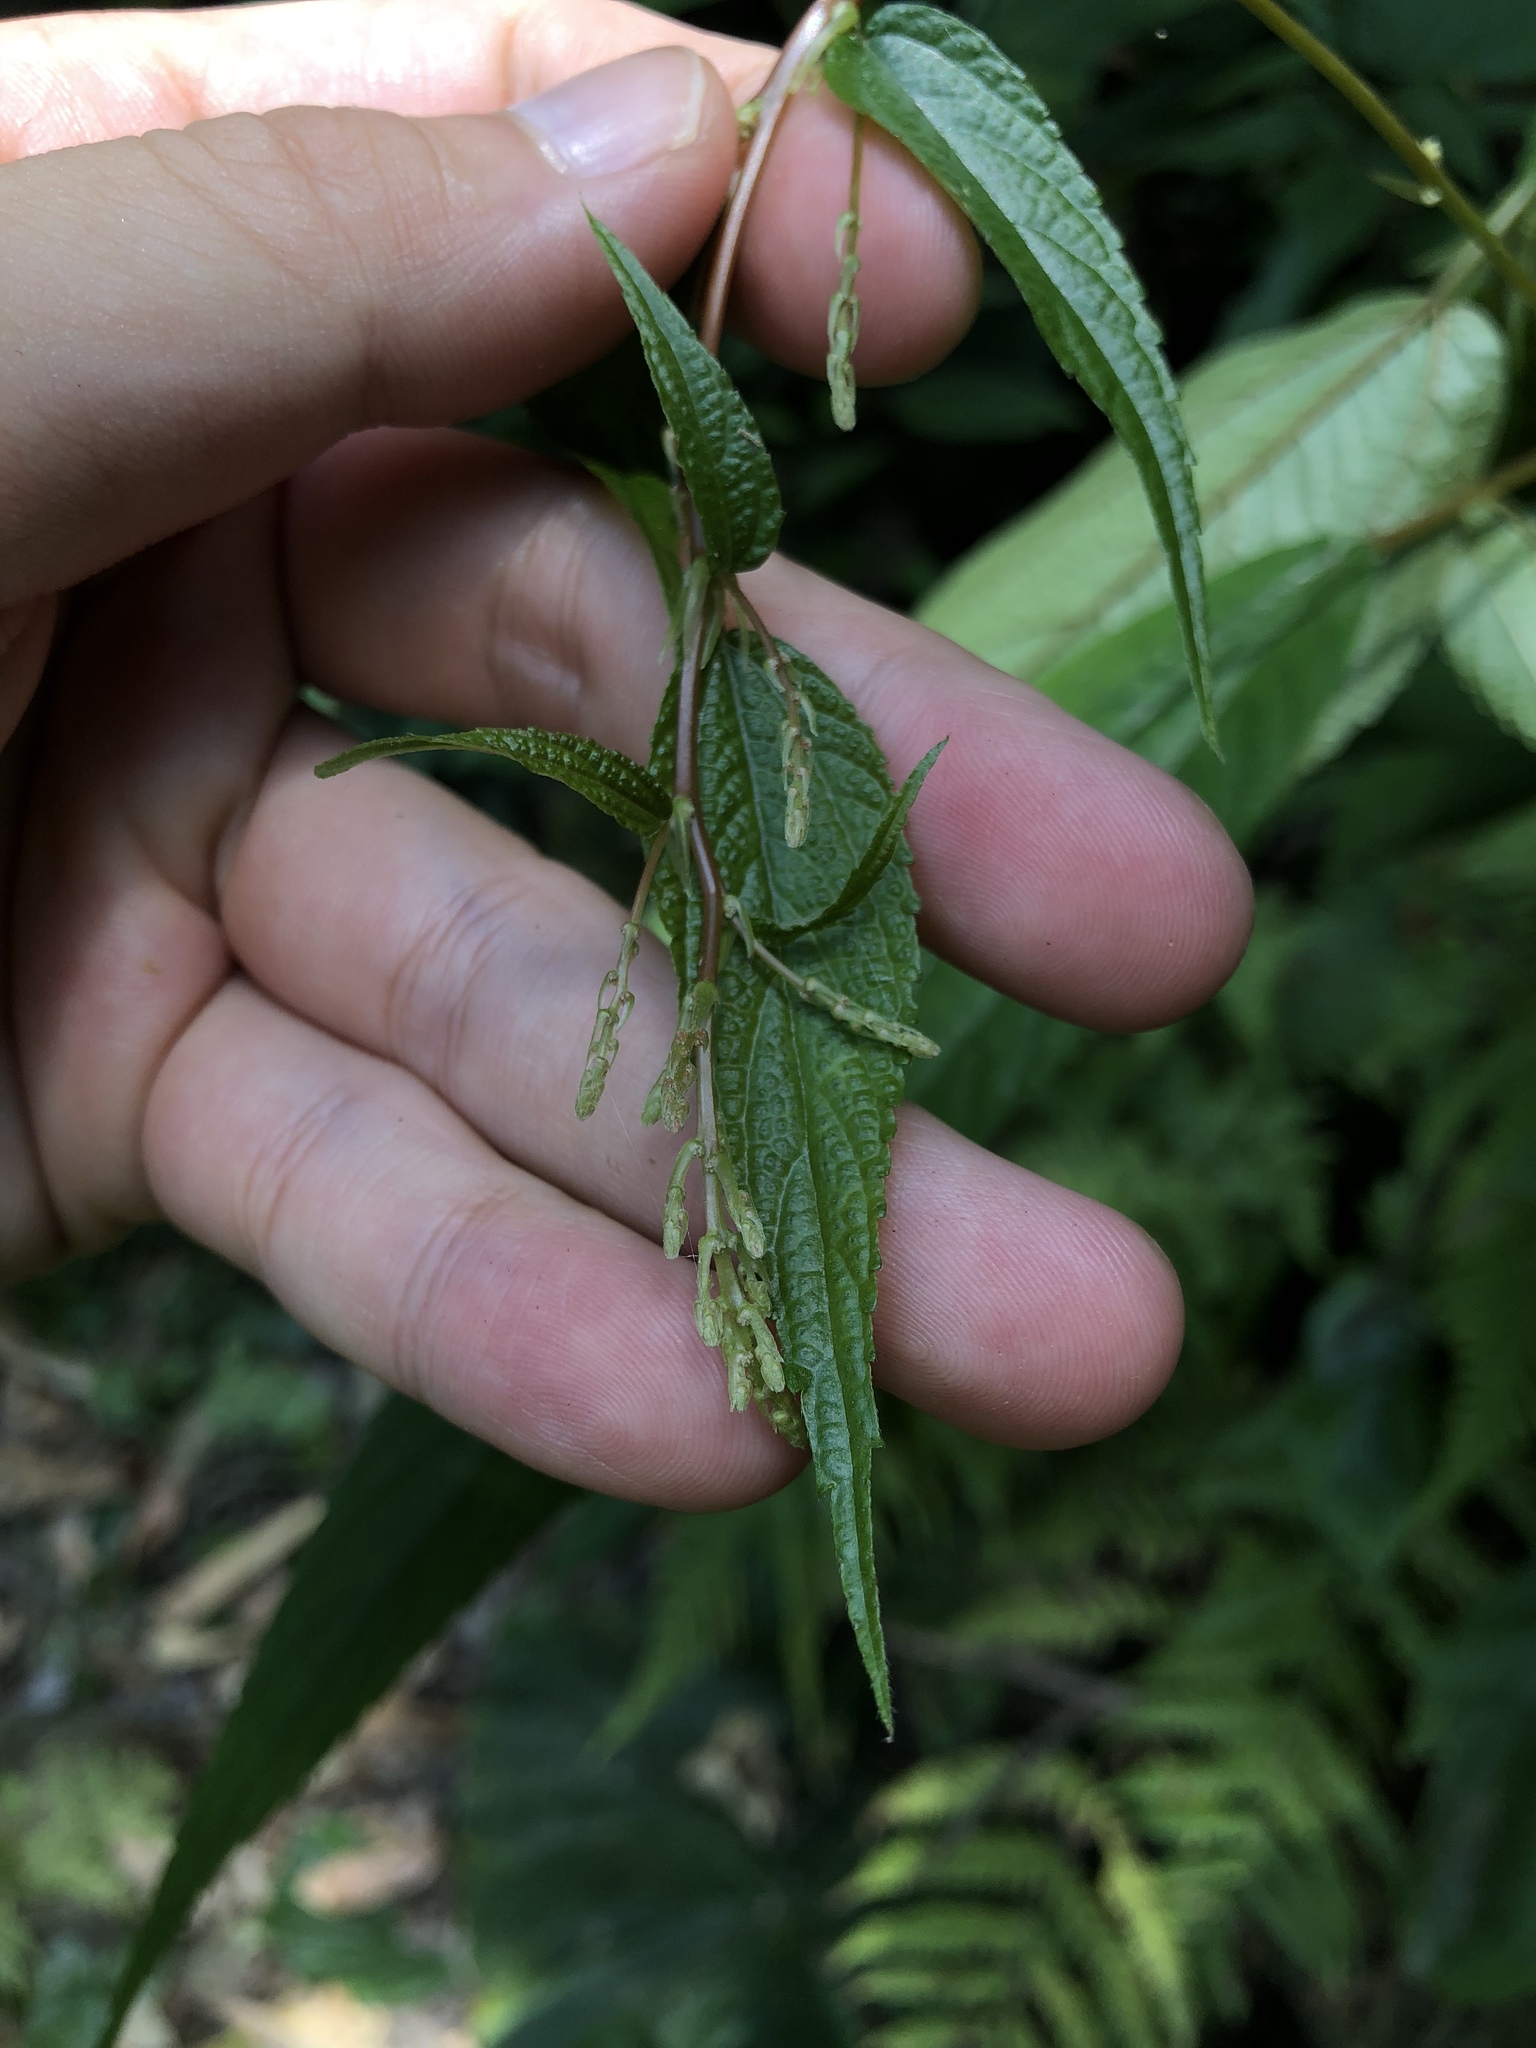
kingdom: Plantae
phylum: Tracheophyta
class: Magnoliopsida
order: Rosales
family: Urticaceae
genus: Boehmeria
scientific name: Boehmeria zollingeriana
